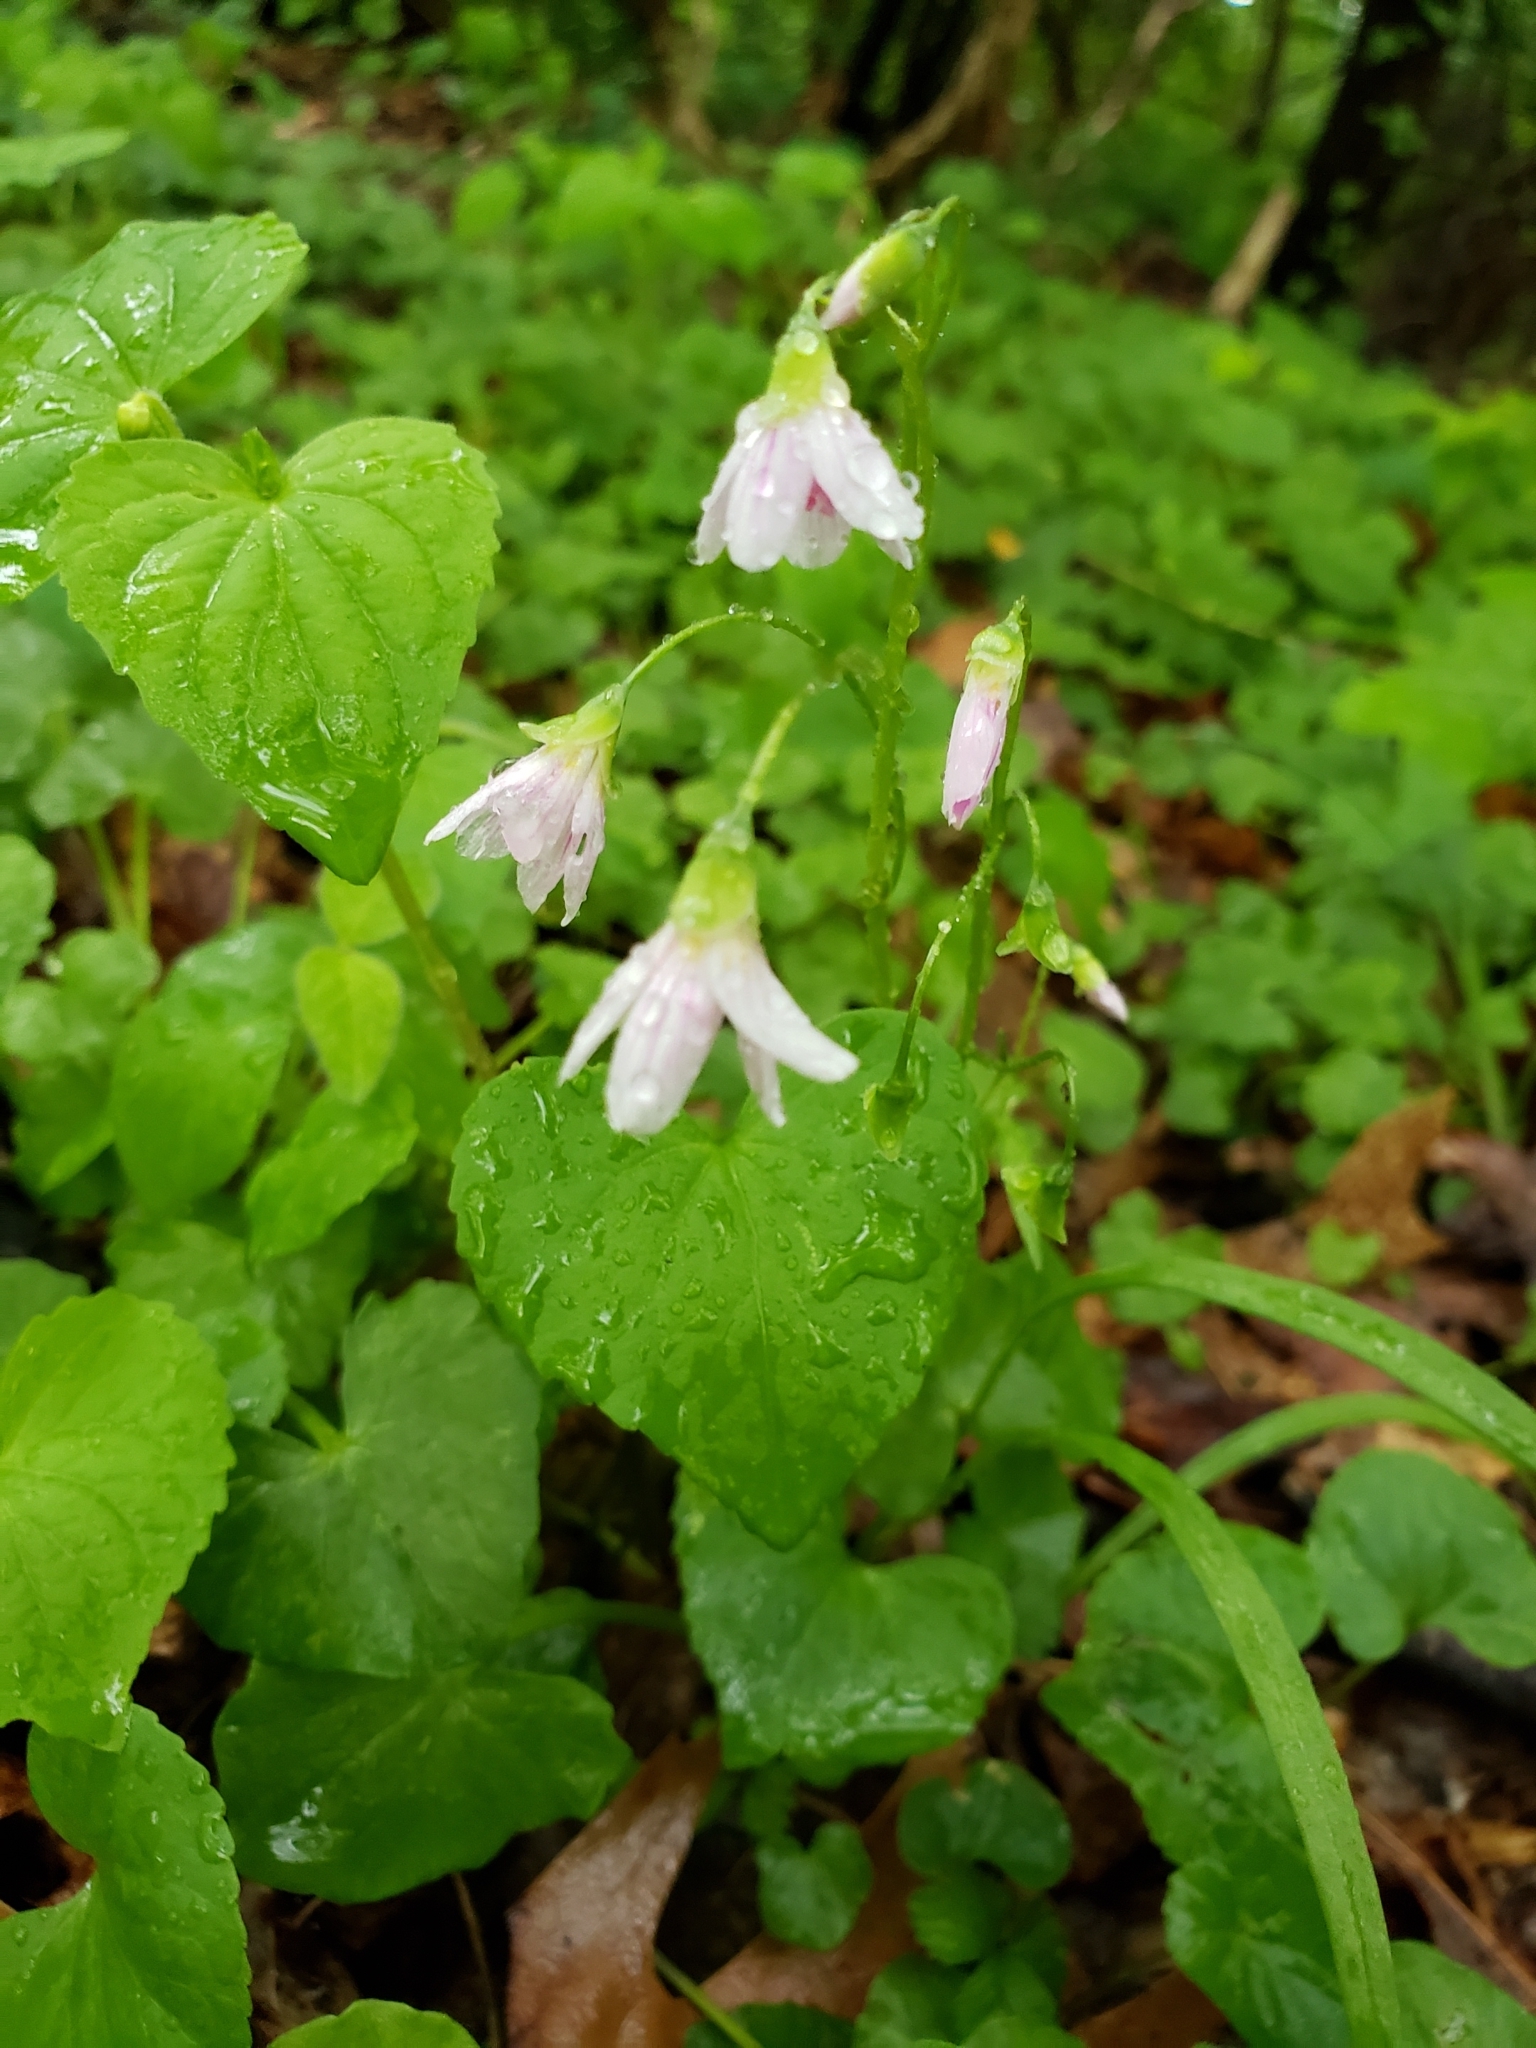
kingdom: Plantae
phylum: Tracheophyta
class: Magnoliopsida
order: Caryophyllales
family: Montiaceae
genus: Claytonia
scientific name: Claytonia virginica
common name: Virginia springbeauty
